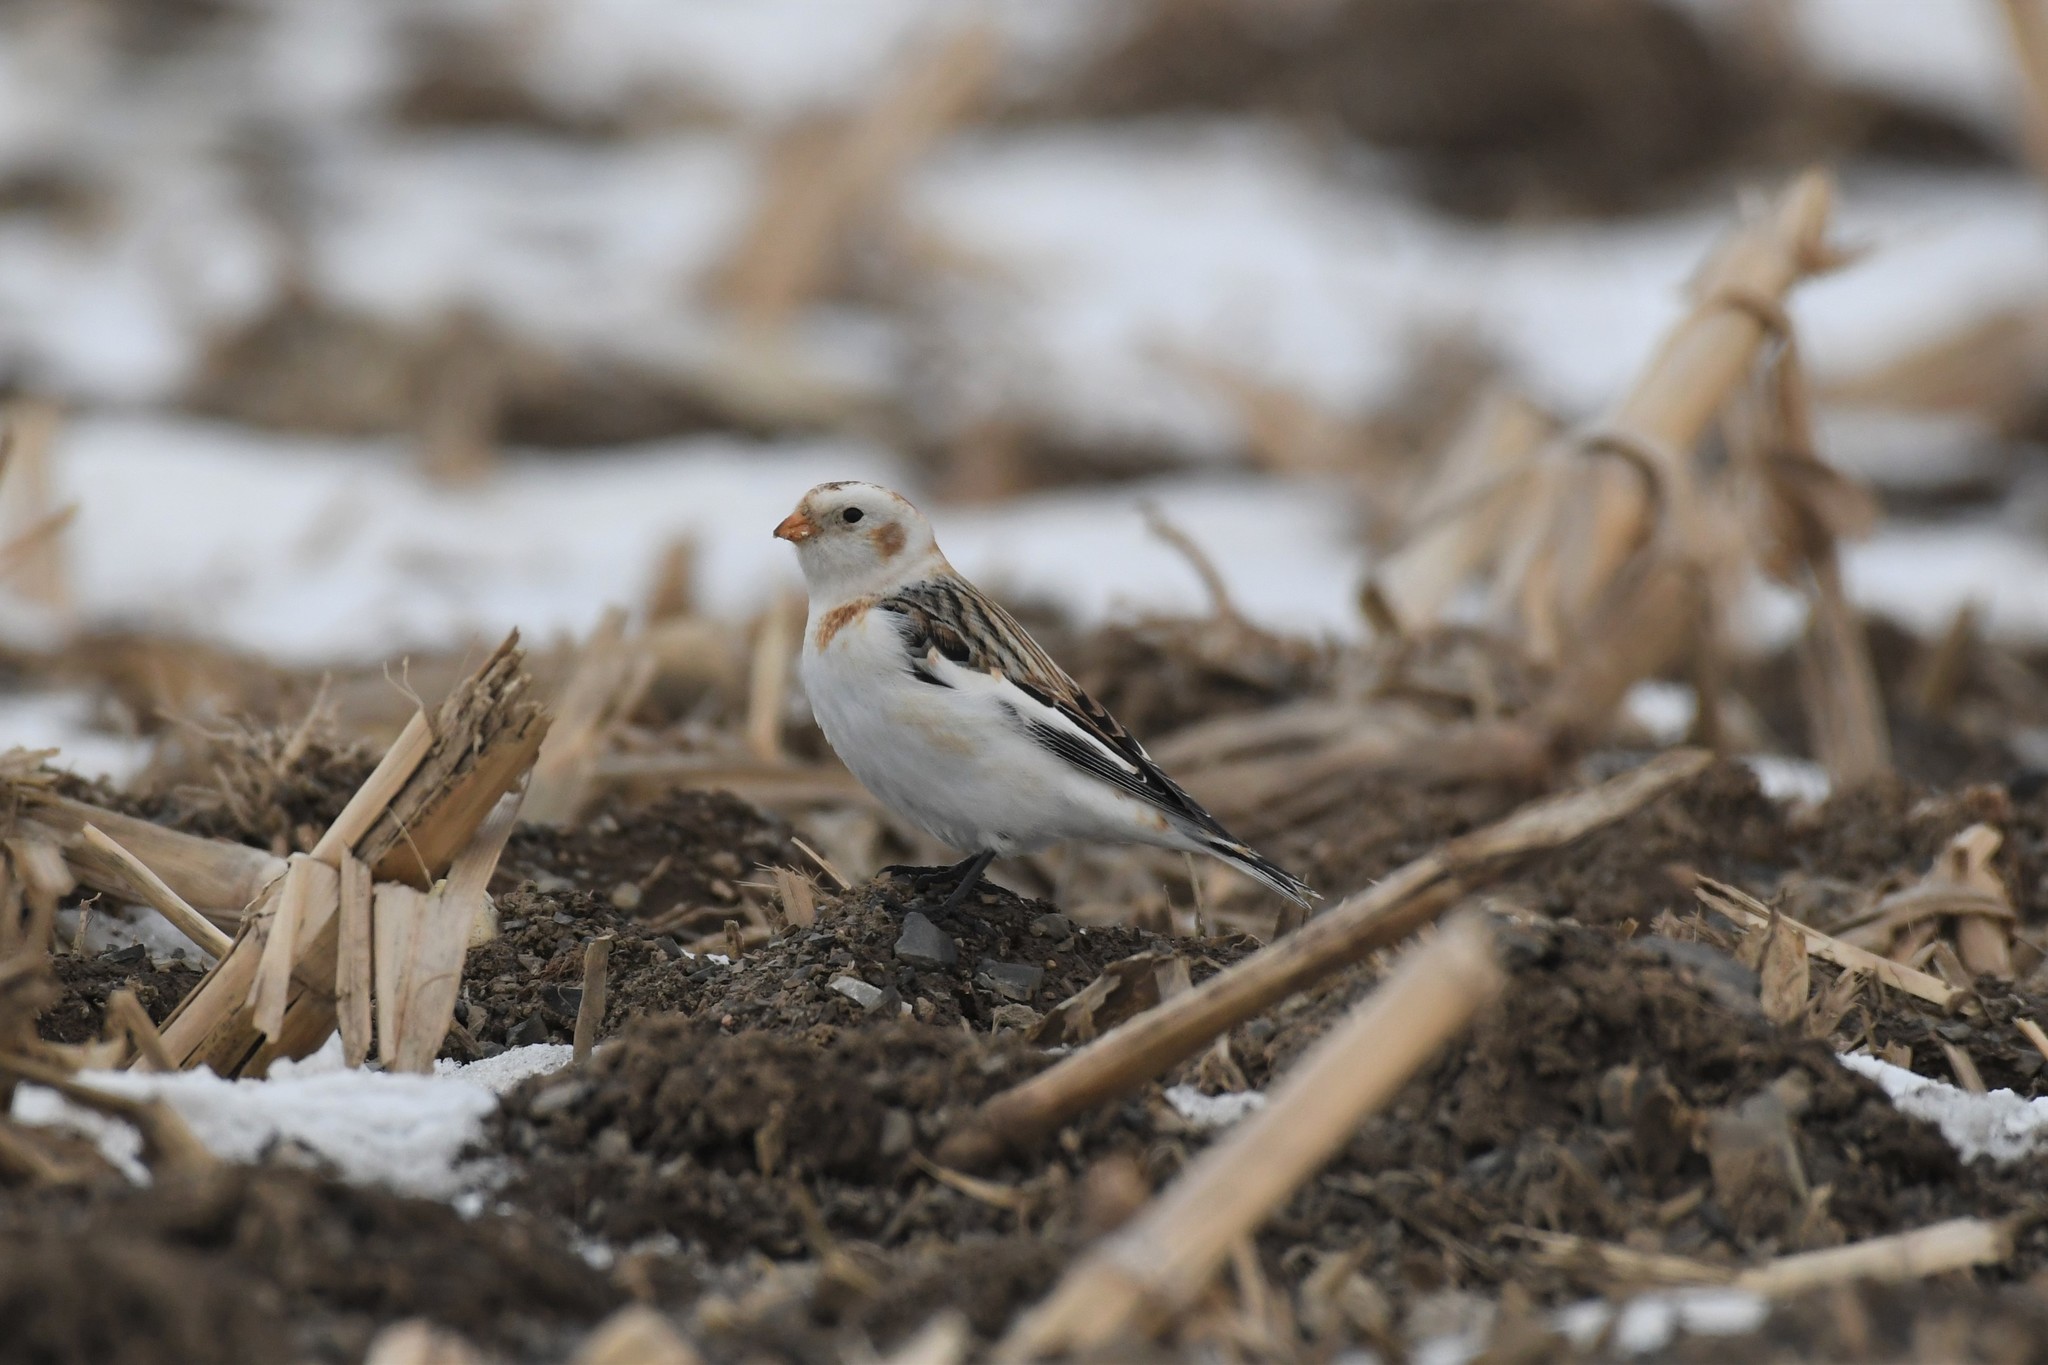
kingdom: Animalia
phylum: Chordata
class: Aves
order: Passeriformes
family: Calcariidae
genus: Plectrophenax
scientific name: Plectrophenax nivalis
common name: Snow bunting
